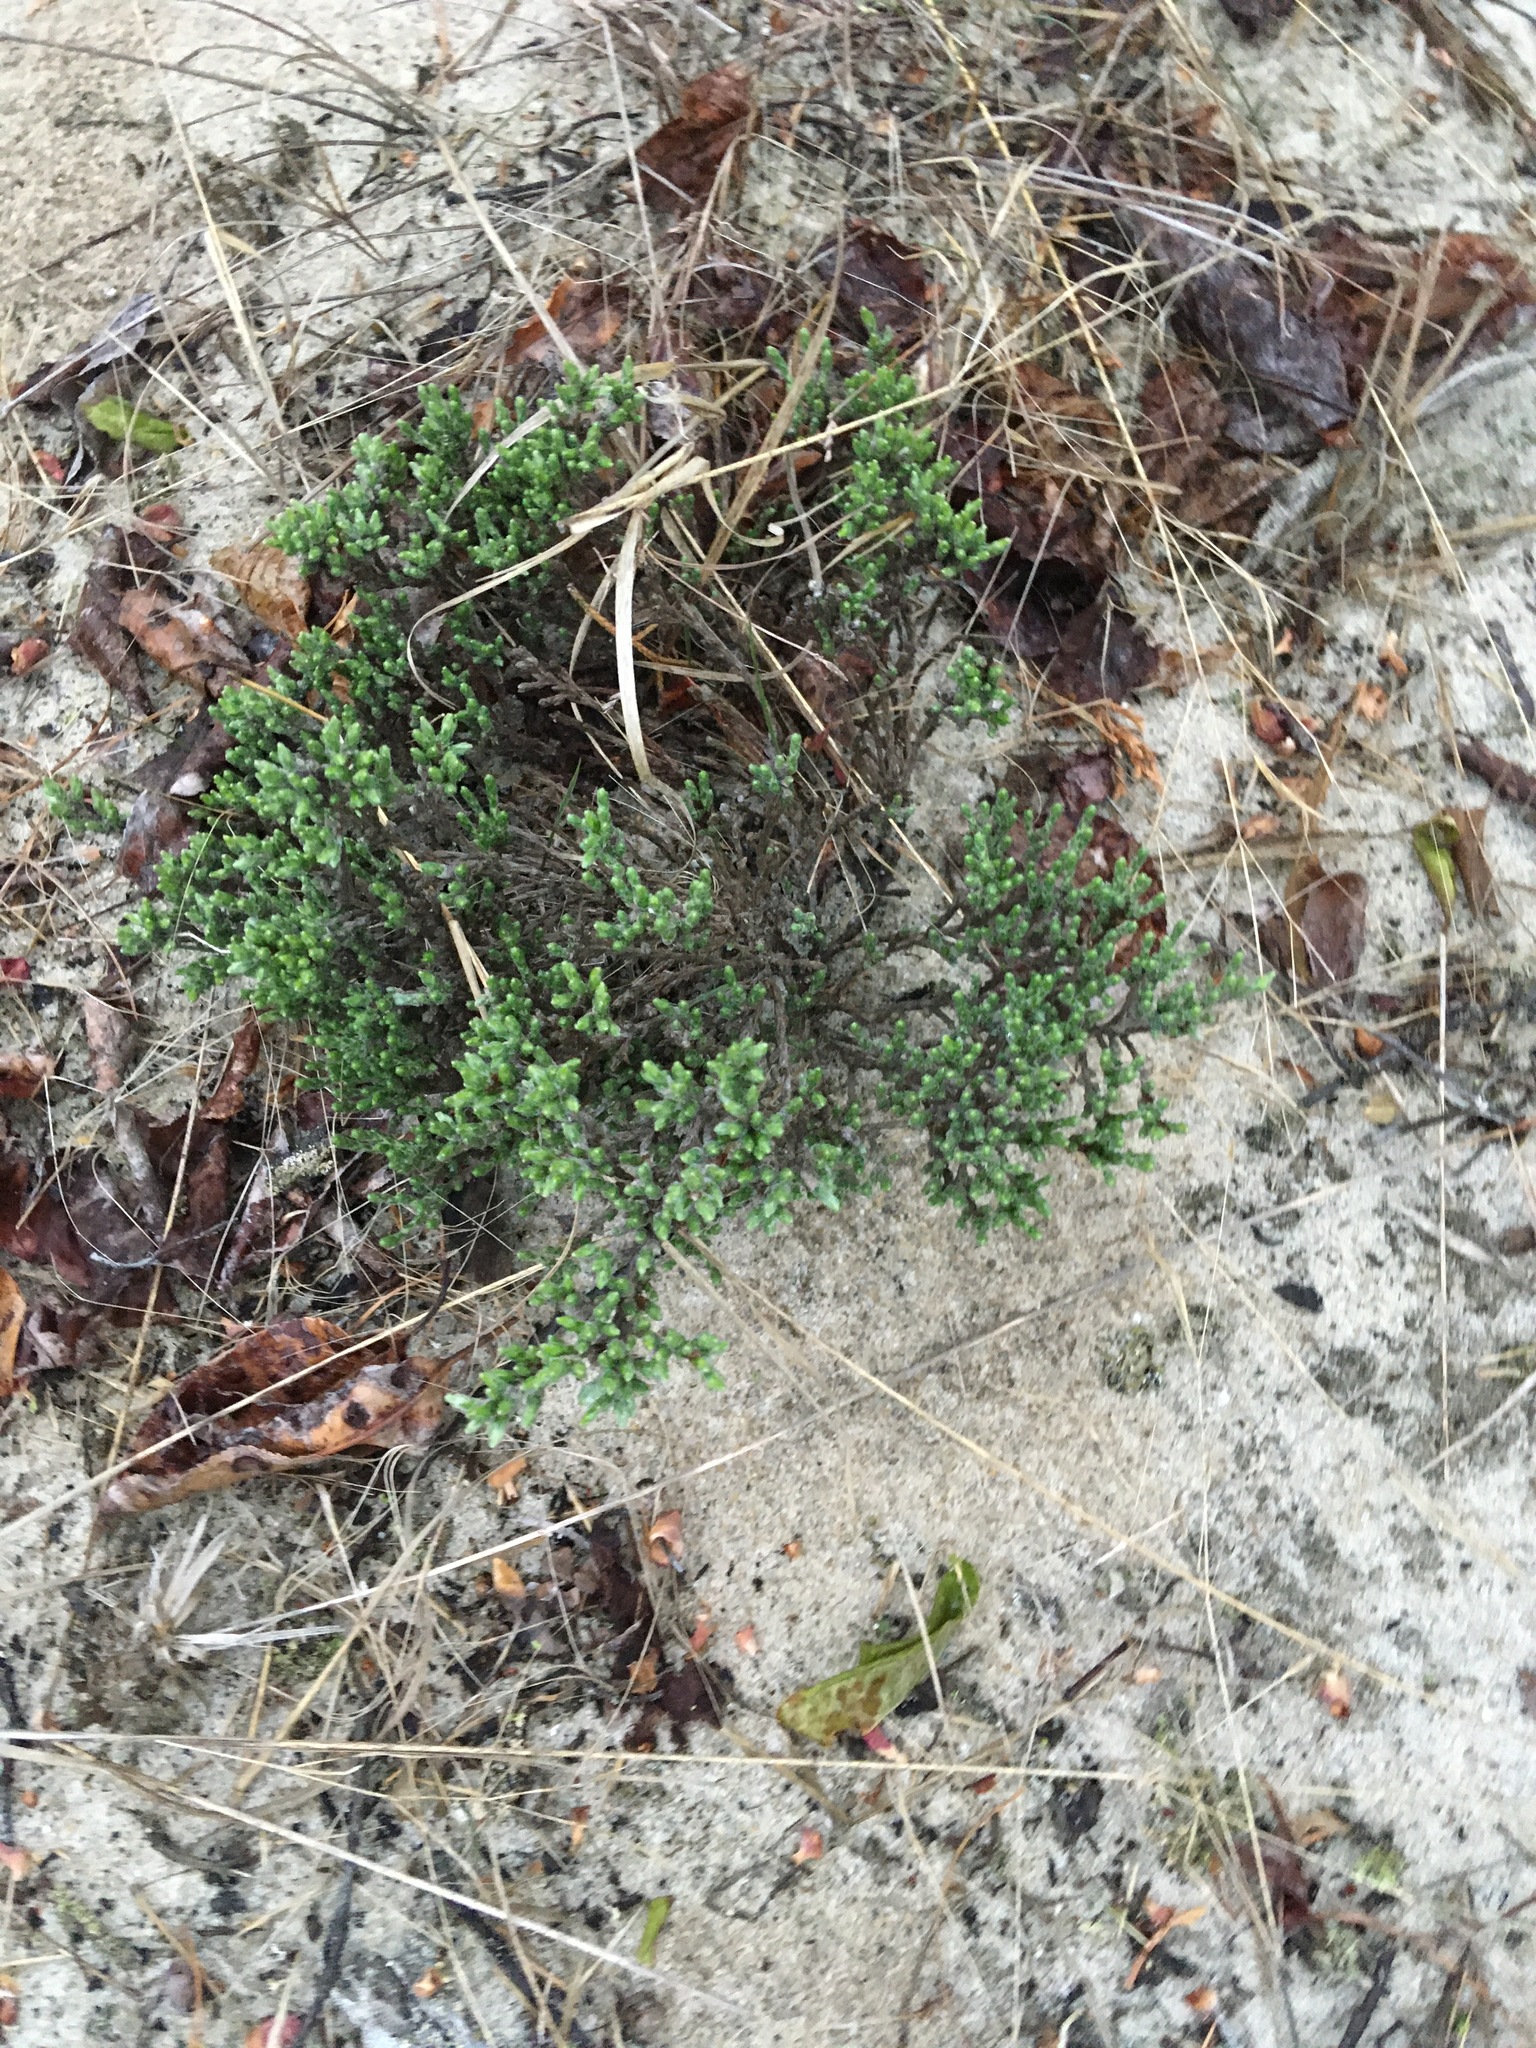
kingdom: Plantae
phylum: Tracheophyta
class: Magnoliopsida
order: Malvales
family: Cistaceae
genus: Hudsonia
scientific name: Hudsonia tomentosa
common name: Beach-heath
